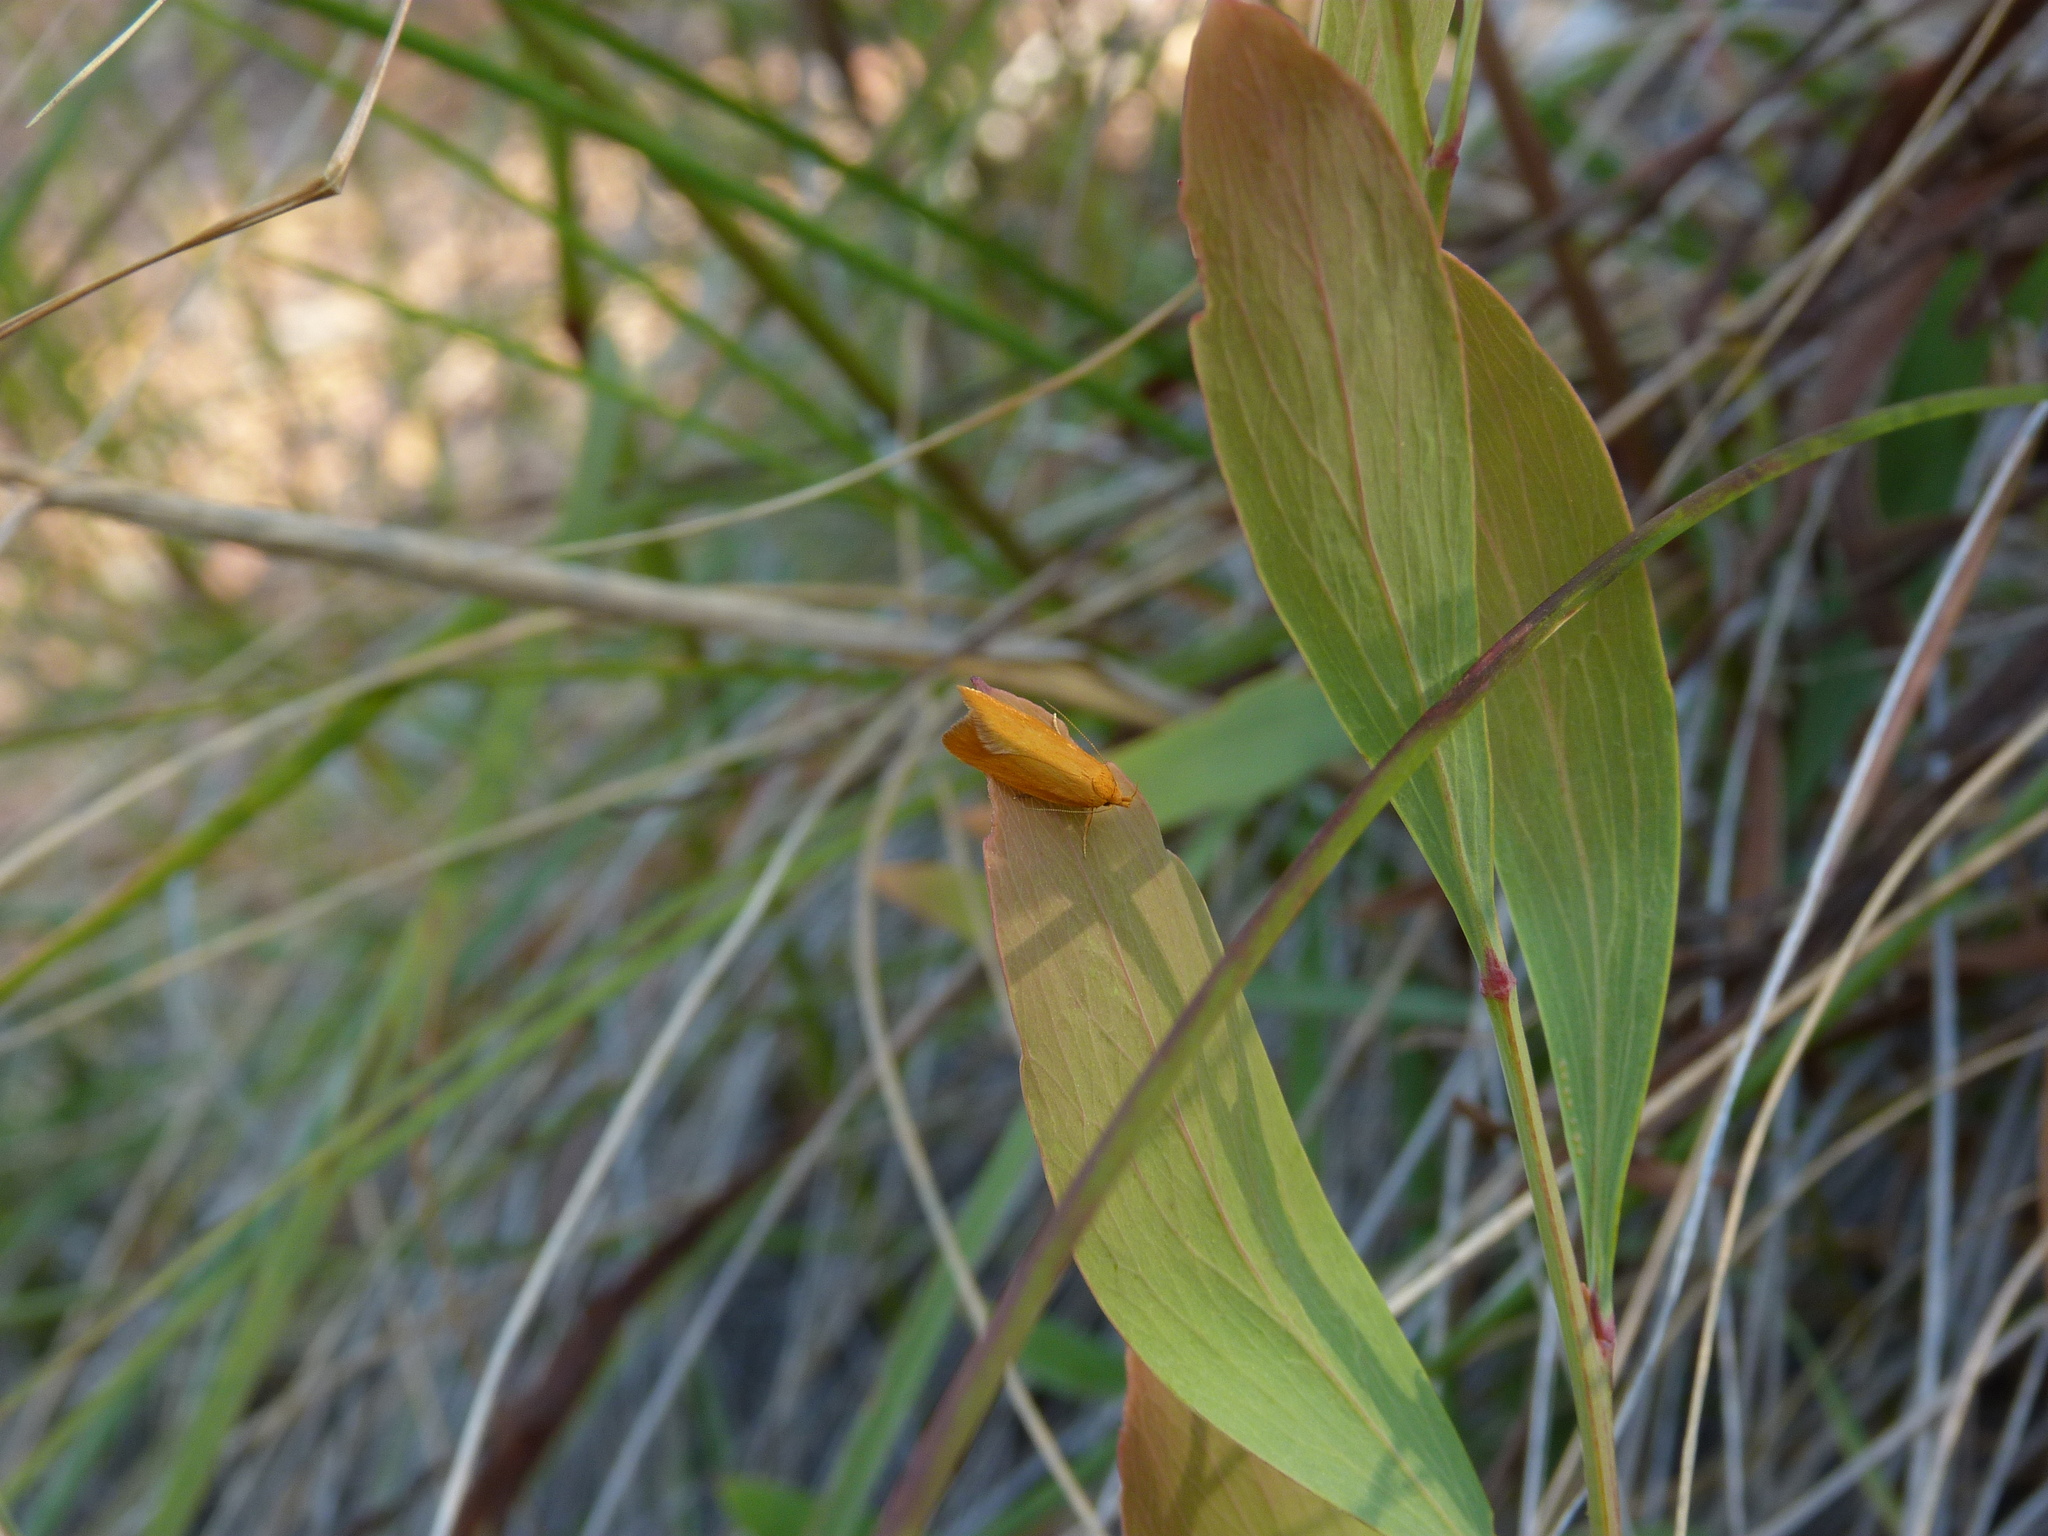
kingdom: Animalia
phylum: Arthropoda
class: Insecta
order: Lepidoptera
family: Oecophoridae
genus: Eulechria
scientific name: Eulechria electrodes
